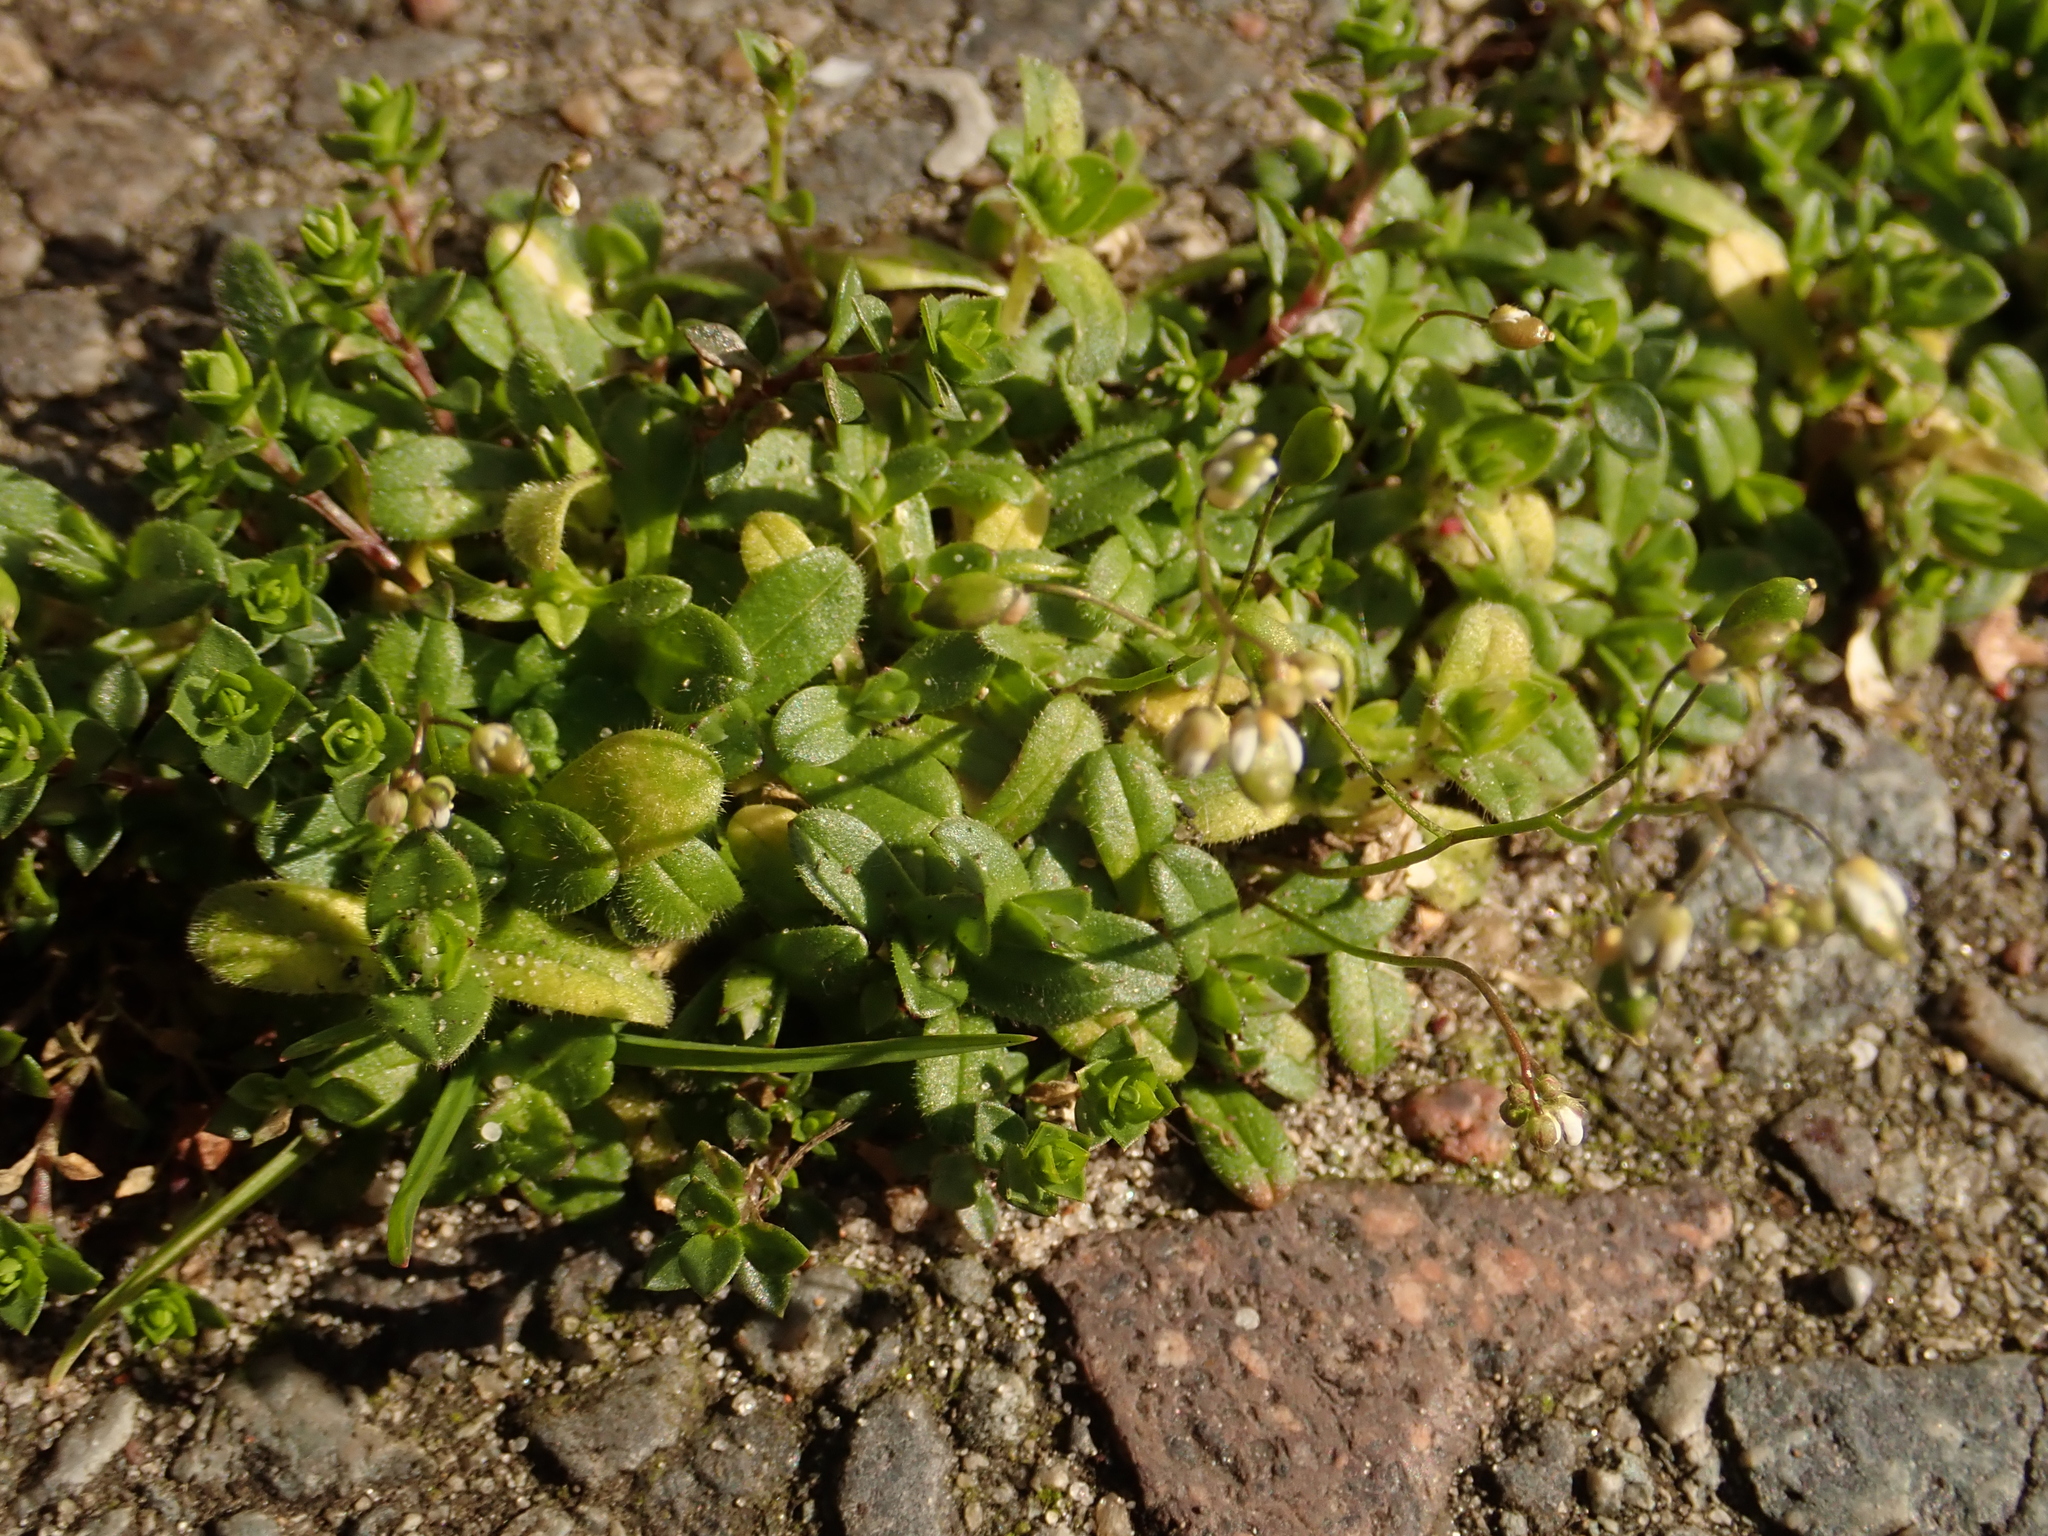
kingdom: Plantae
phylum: Tracheophyta
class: Magnoliopsida
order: Brassicales
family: Brassicaceae
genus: Draba
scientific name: Draba verna
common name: Spring draba
